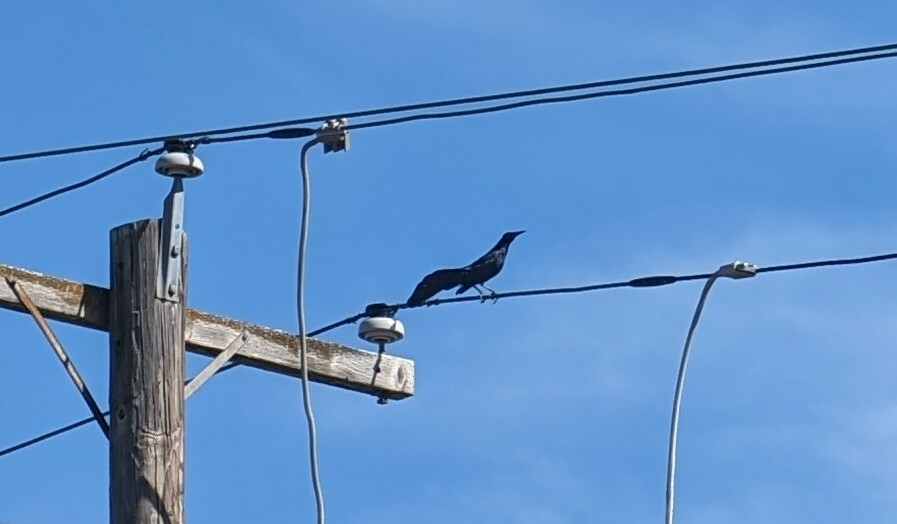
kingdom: Animalia
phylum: Chordata
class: Aves
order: Passeriformes
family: Icteridae
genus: Quiscalus
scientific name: Quiscalus mexicanus
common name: Great-tailed grackle
